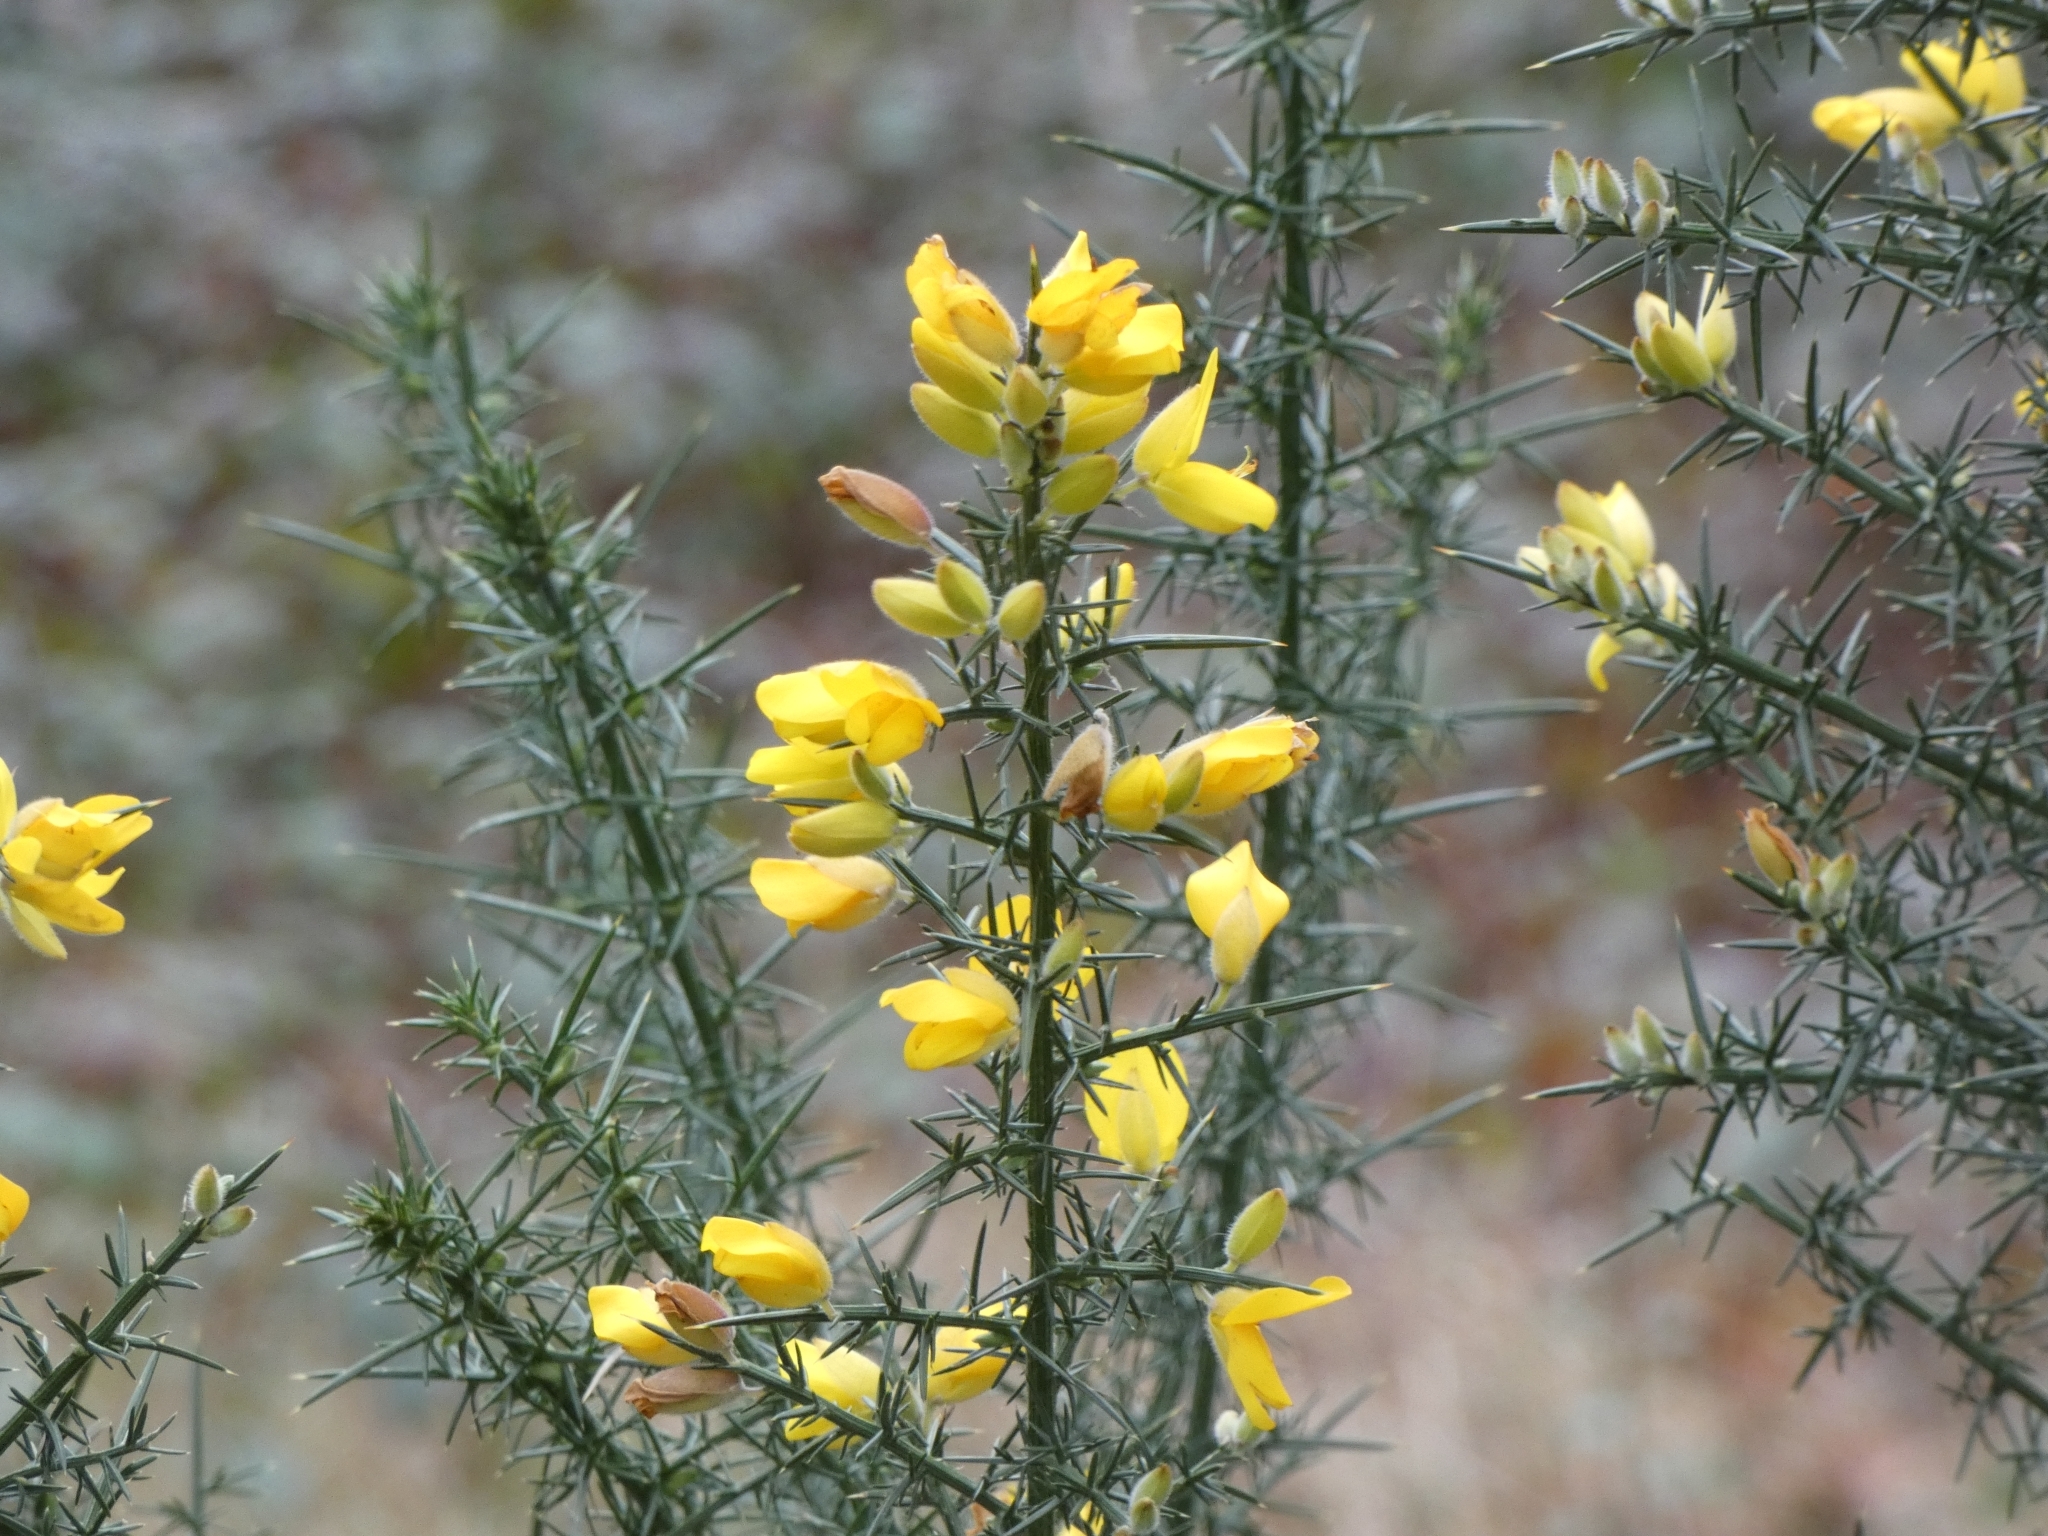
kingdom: Plantae
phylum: Tracheophyta
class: Magnoliopsida
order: Fabales
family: Fabaceae
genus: Ulex
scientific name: Ulex europaeus
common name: Common gorse
